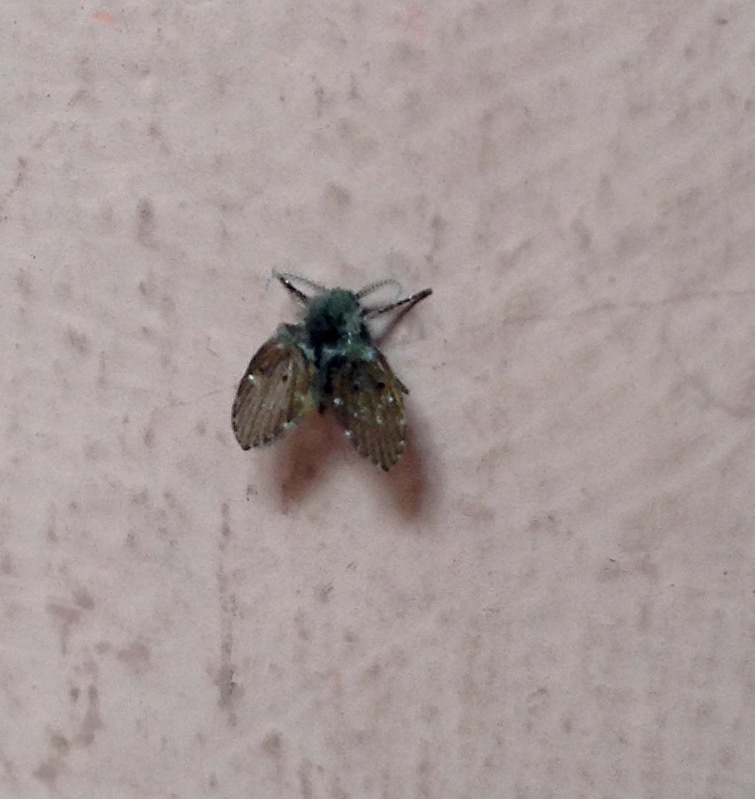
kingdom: Animalia
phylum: Arthropoda
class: Insecta
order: Diptera
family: Psychodidae
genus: Clogmia
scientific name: Clogmia albipunctatus
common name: White-spotted moth fly
